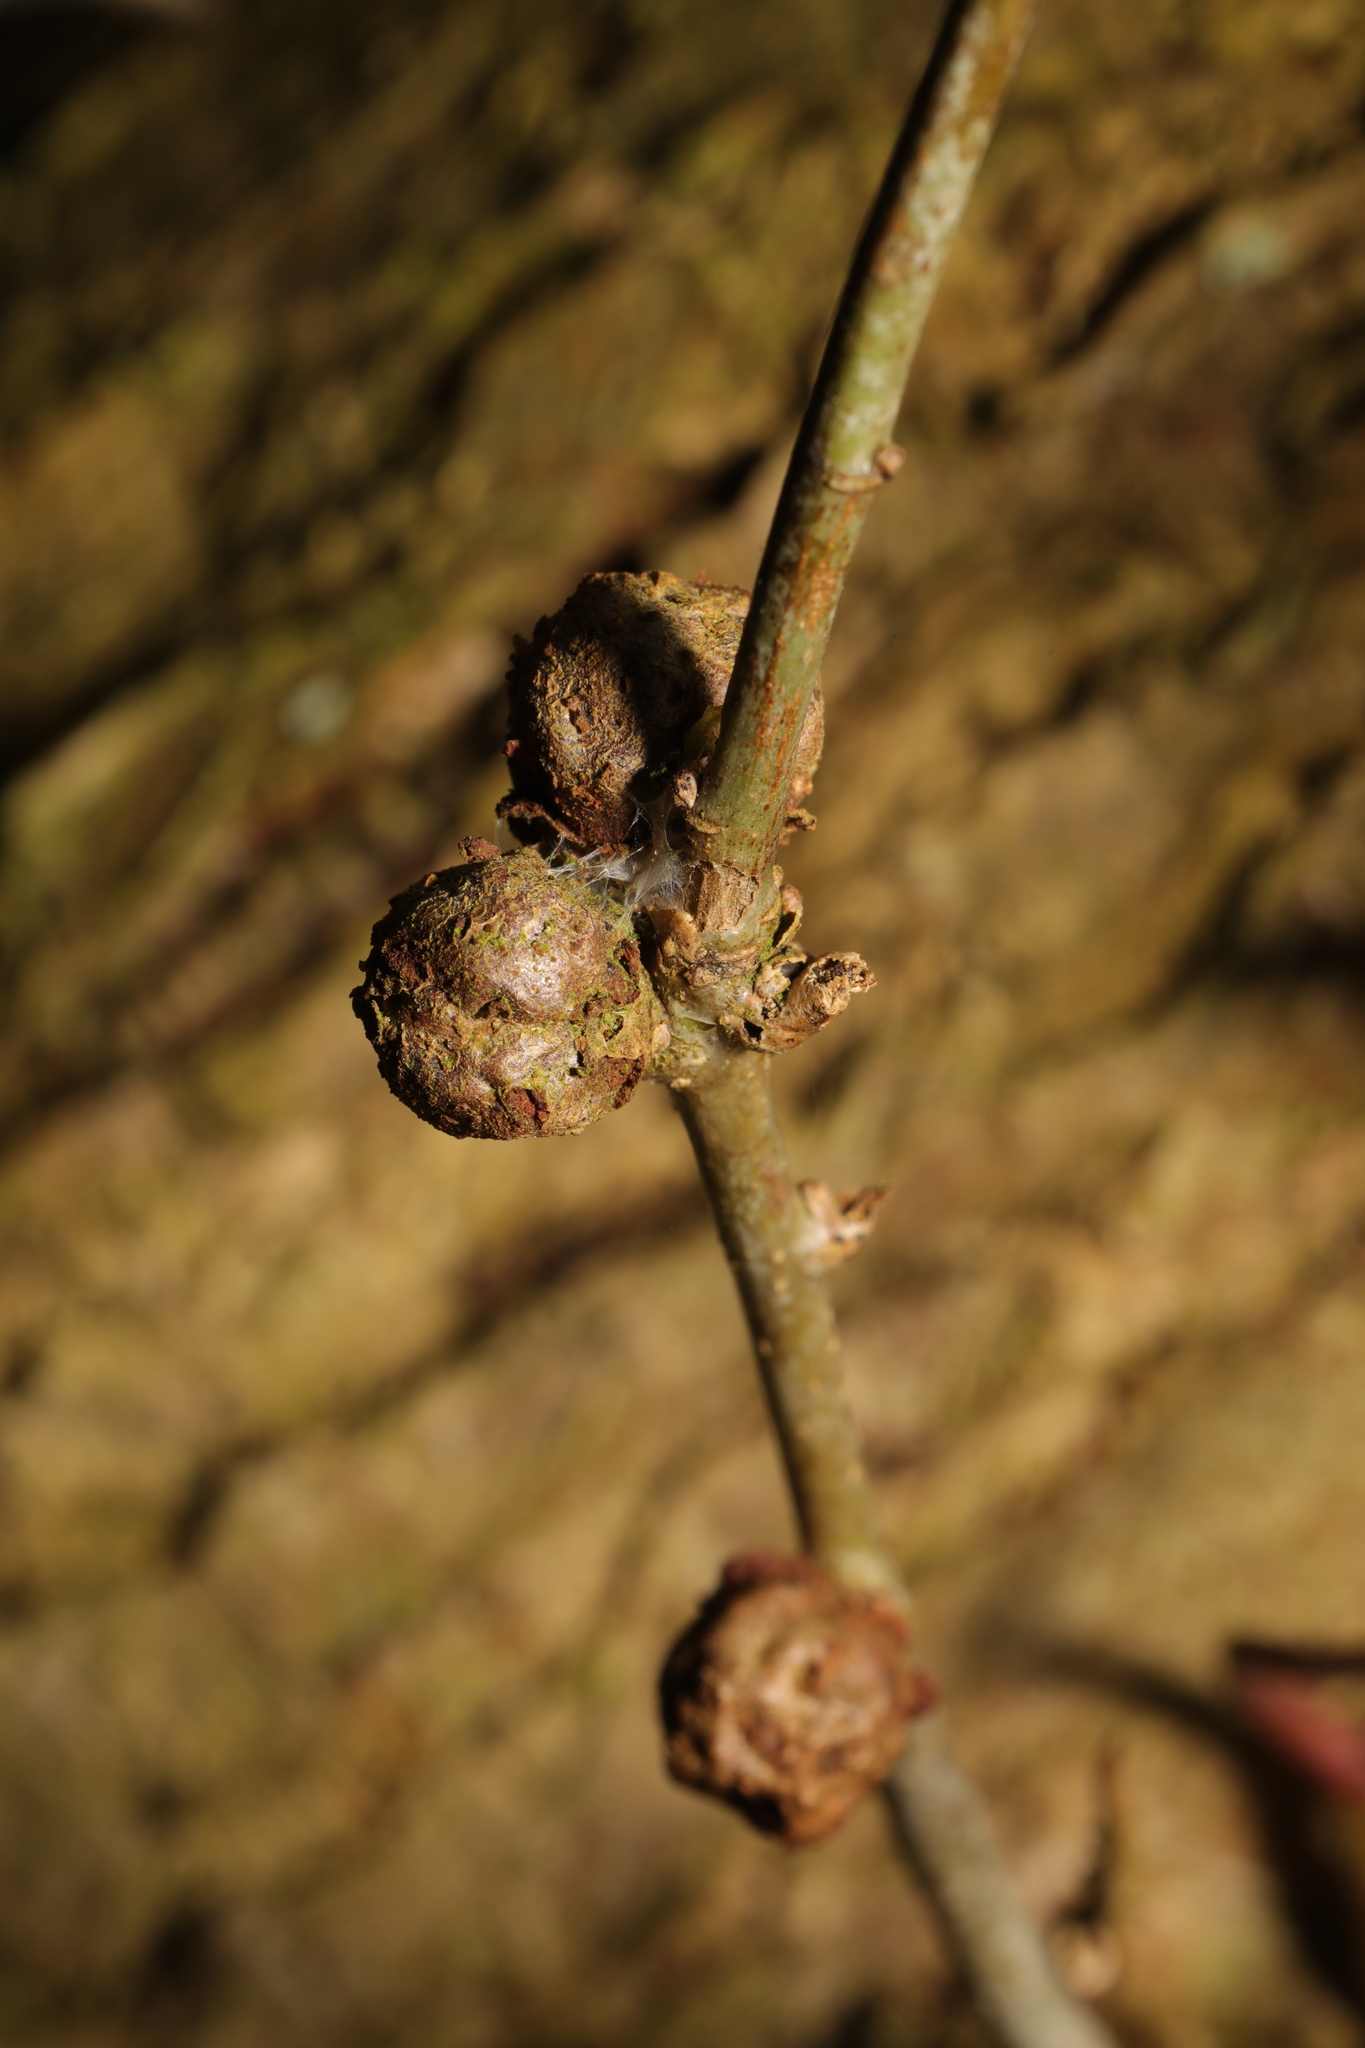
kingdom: Animalia
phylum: Arthropoda
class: Insecta
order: Hymenoptera
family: Cynipidae
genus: Andricus
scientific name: Andricus lignicolus
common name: Cola-nut gall
